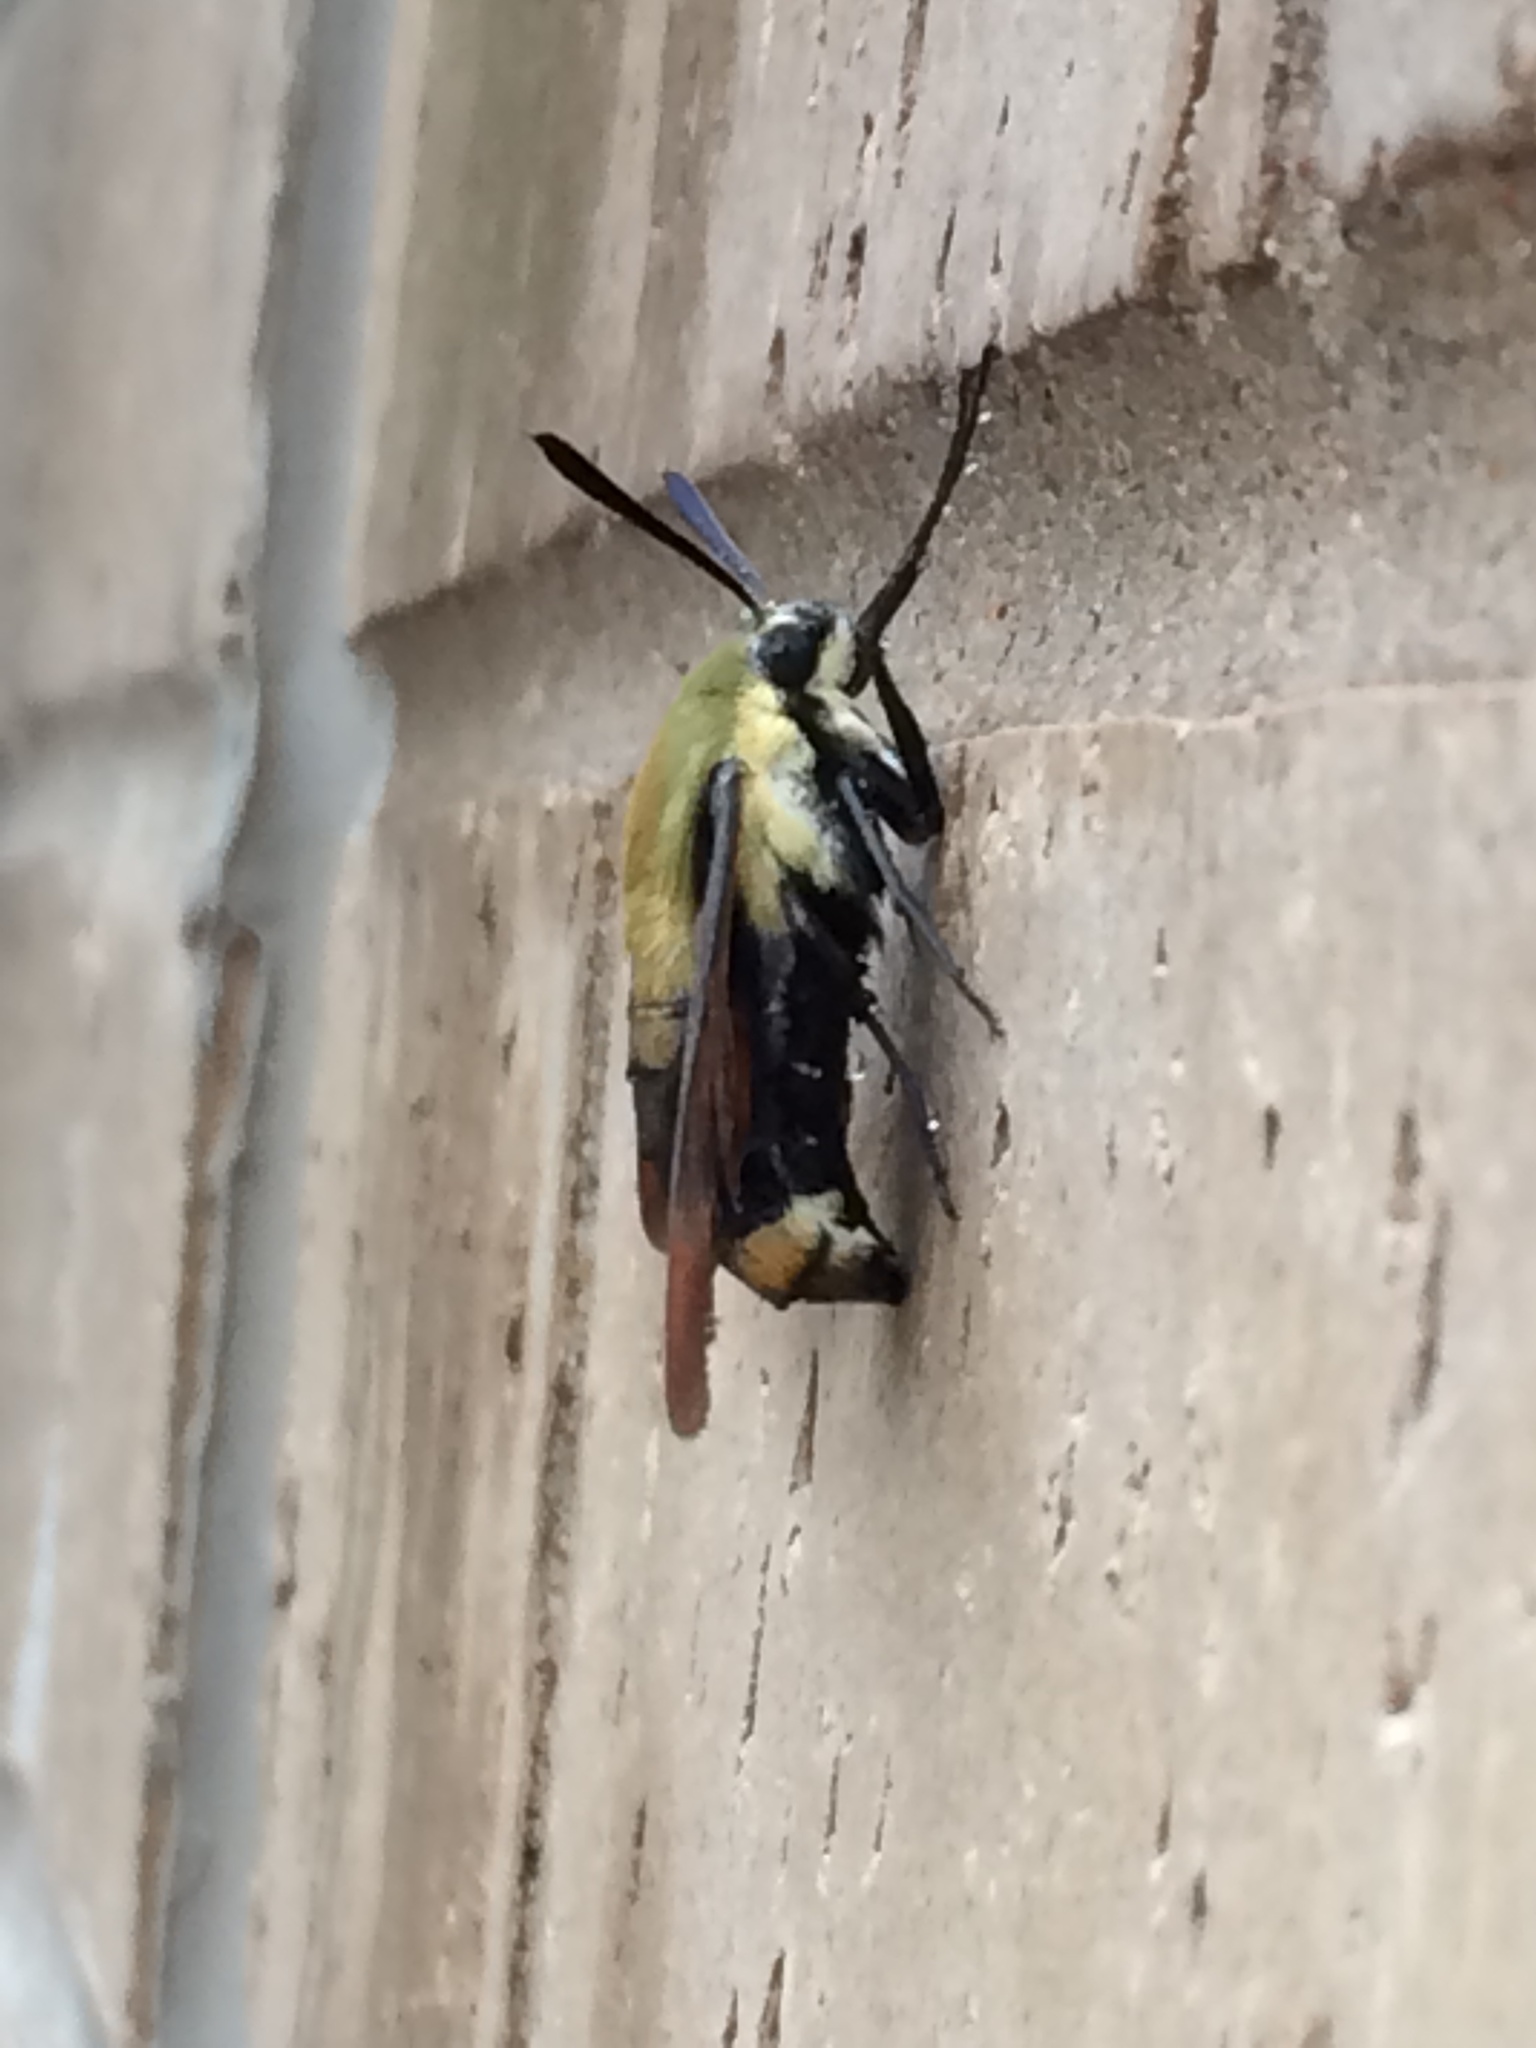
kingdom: Animalia
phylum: Arthropoda
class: Insecta
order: Lepidoptera
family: Sphingidae
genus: Hemaris
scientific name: Hemaris diffinis
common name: Bumblebee moth
